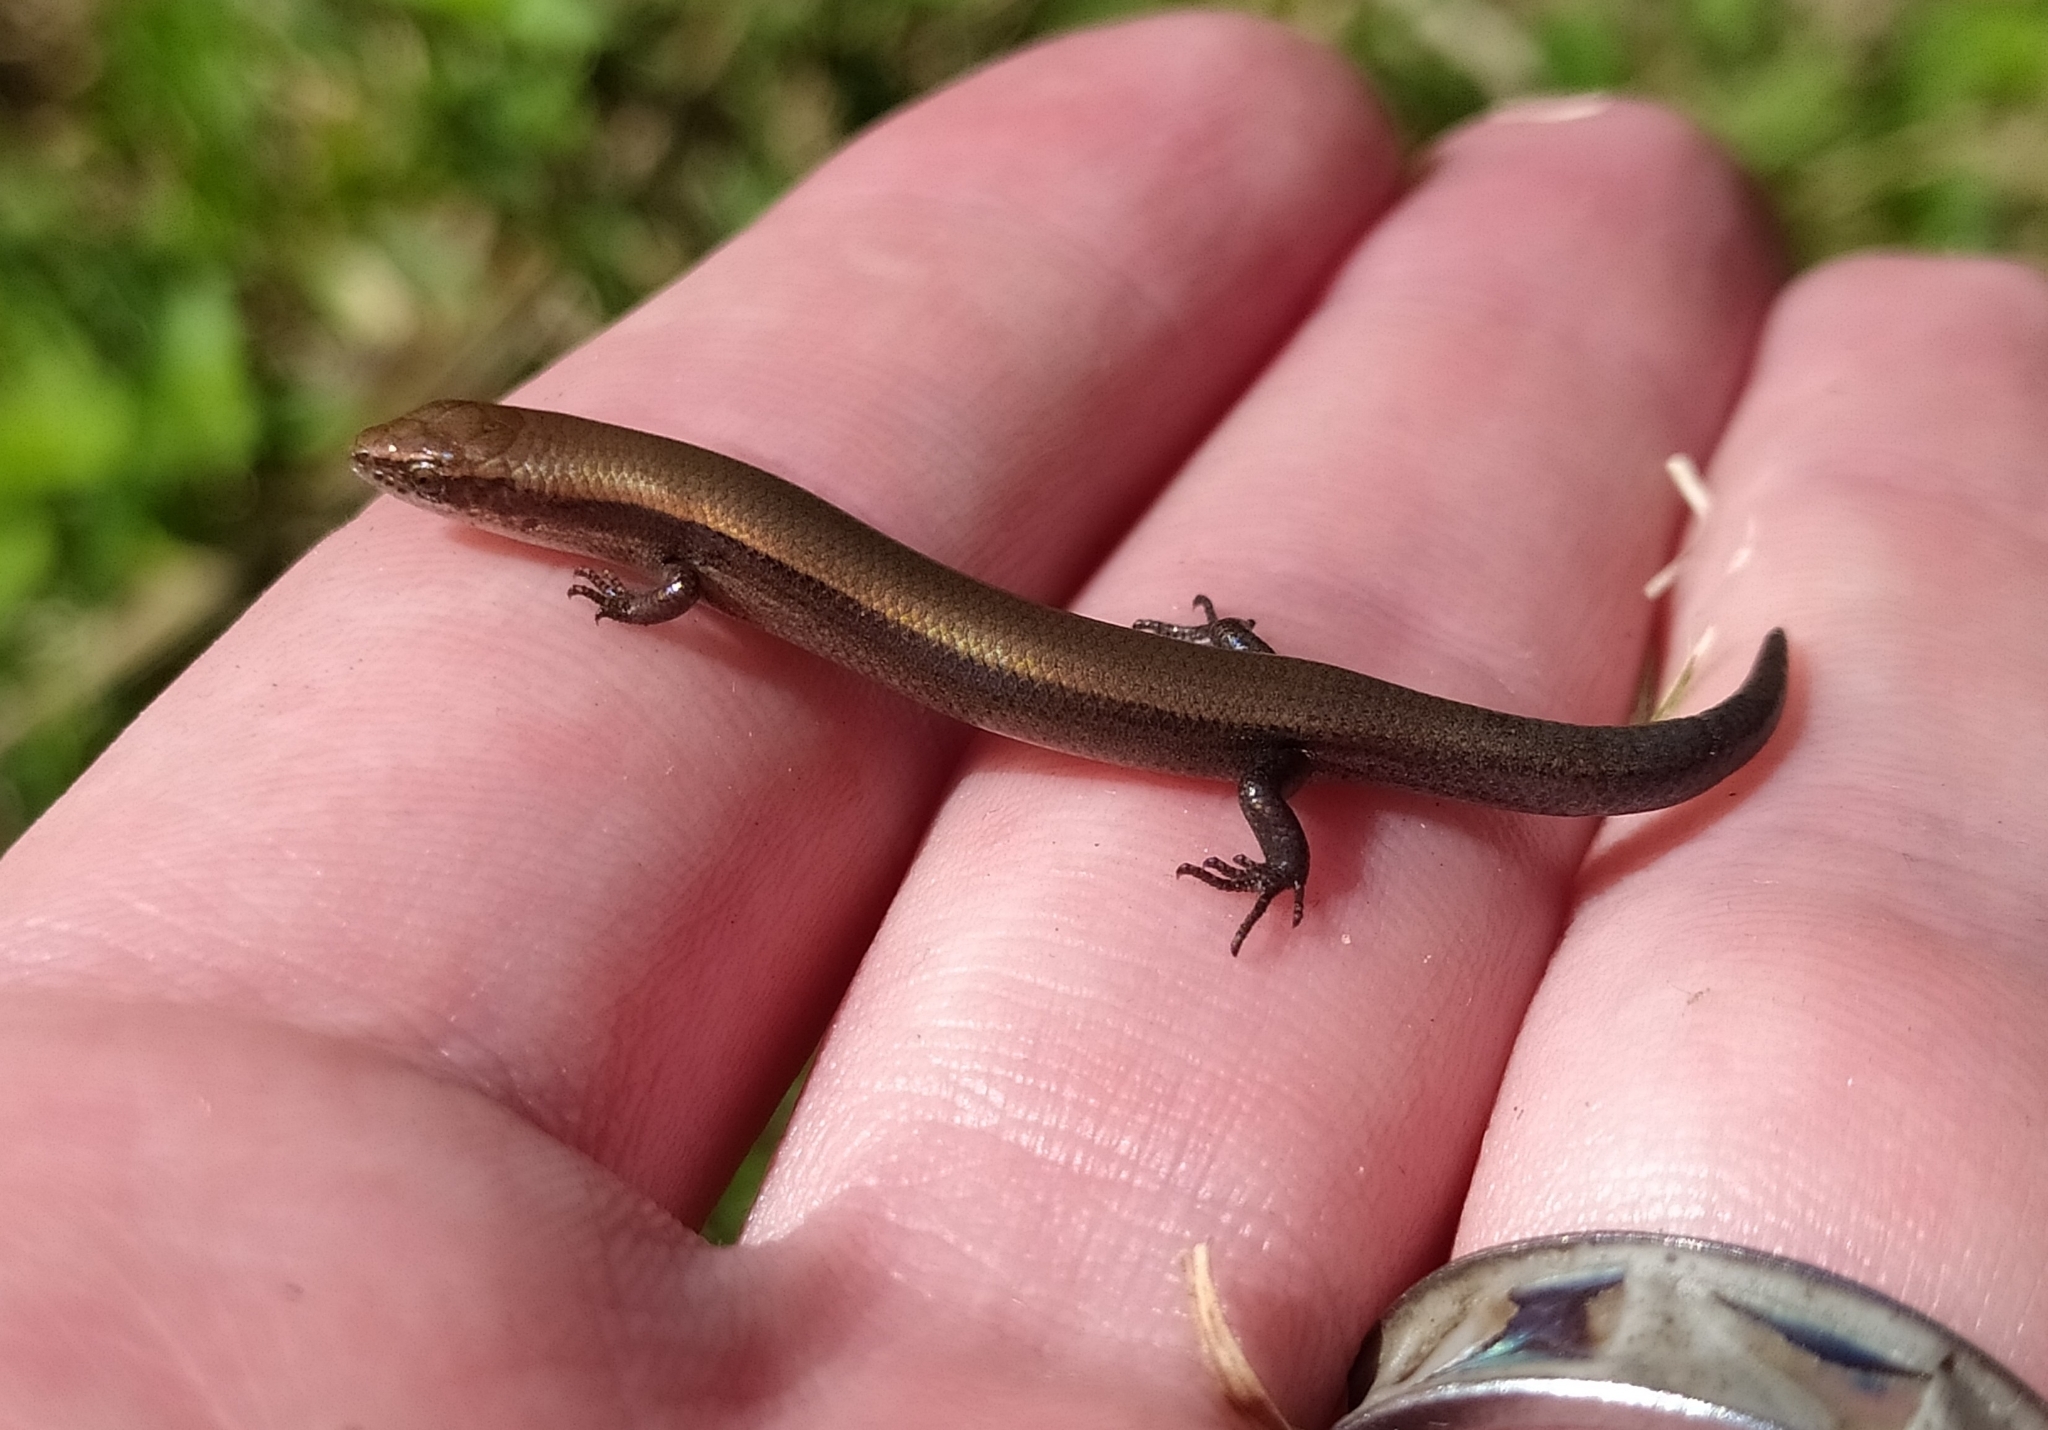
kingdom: Animalia
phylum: Chordata
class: Squamata
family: Scincidae
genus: Panaspis
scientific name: Panaspis wahlbergii
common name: Angolan snake-eyed skink
